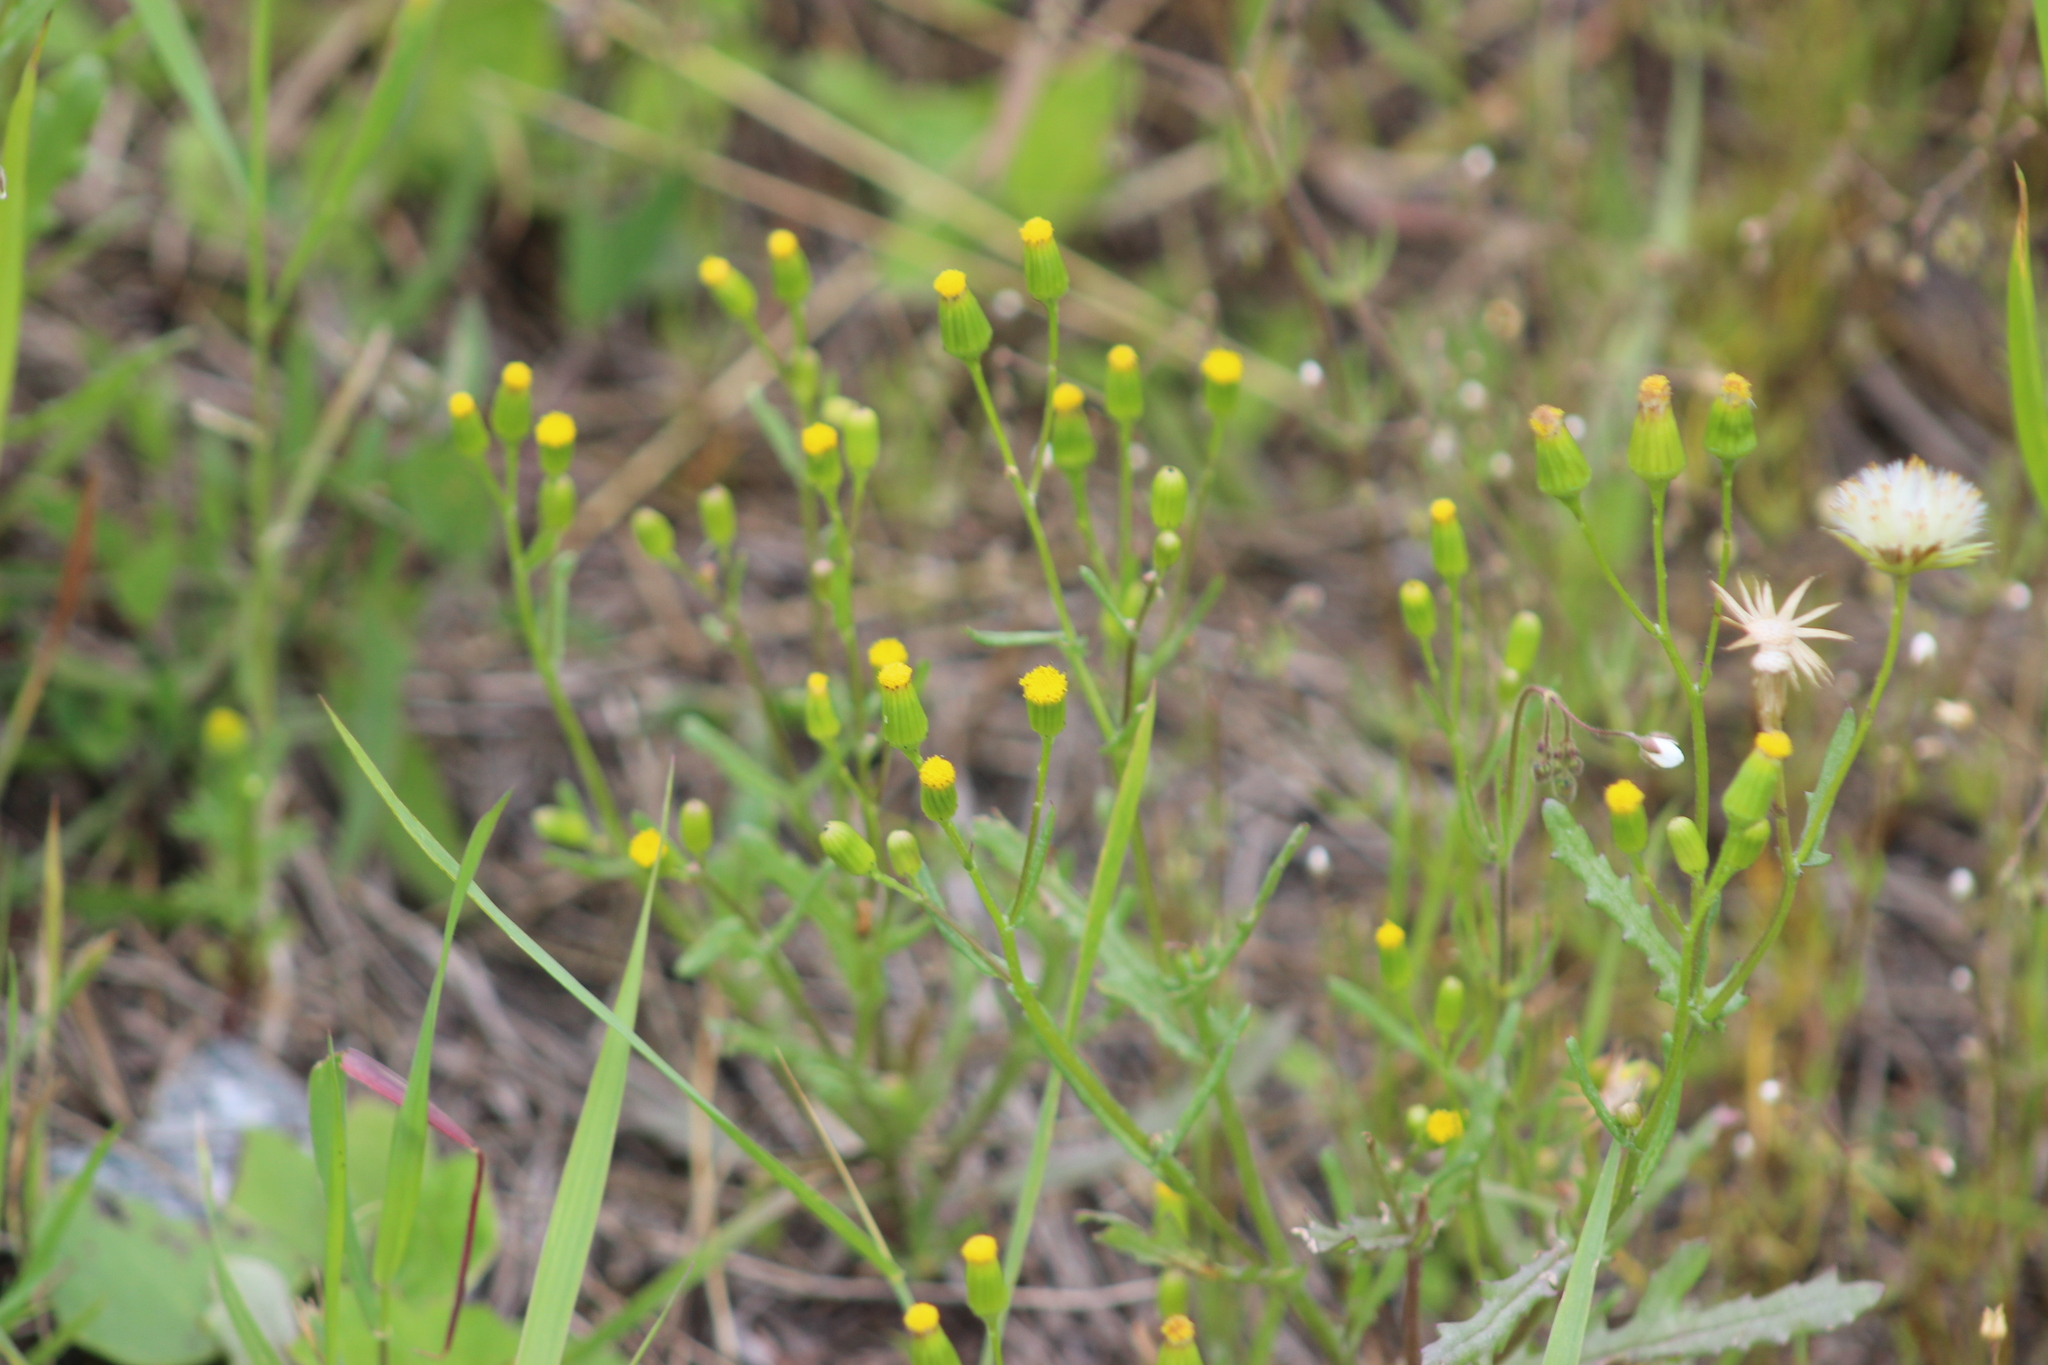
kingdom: Plantae
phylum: Tracheophyta
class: Magnoliopsida
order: Asterales
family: Asteraceae
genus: Senecio
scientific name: Senecio dubitabilis
